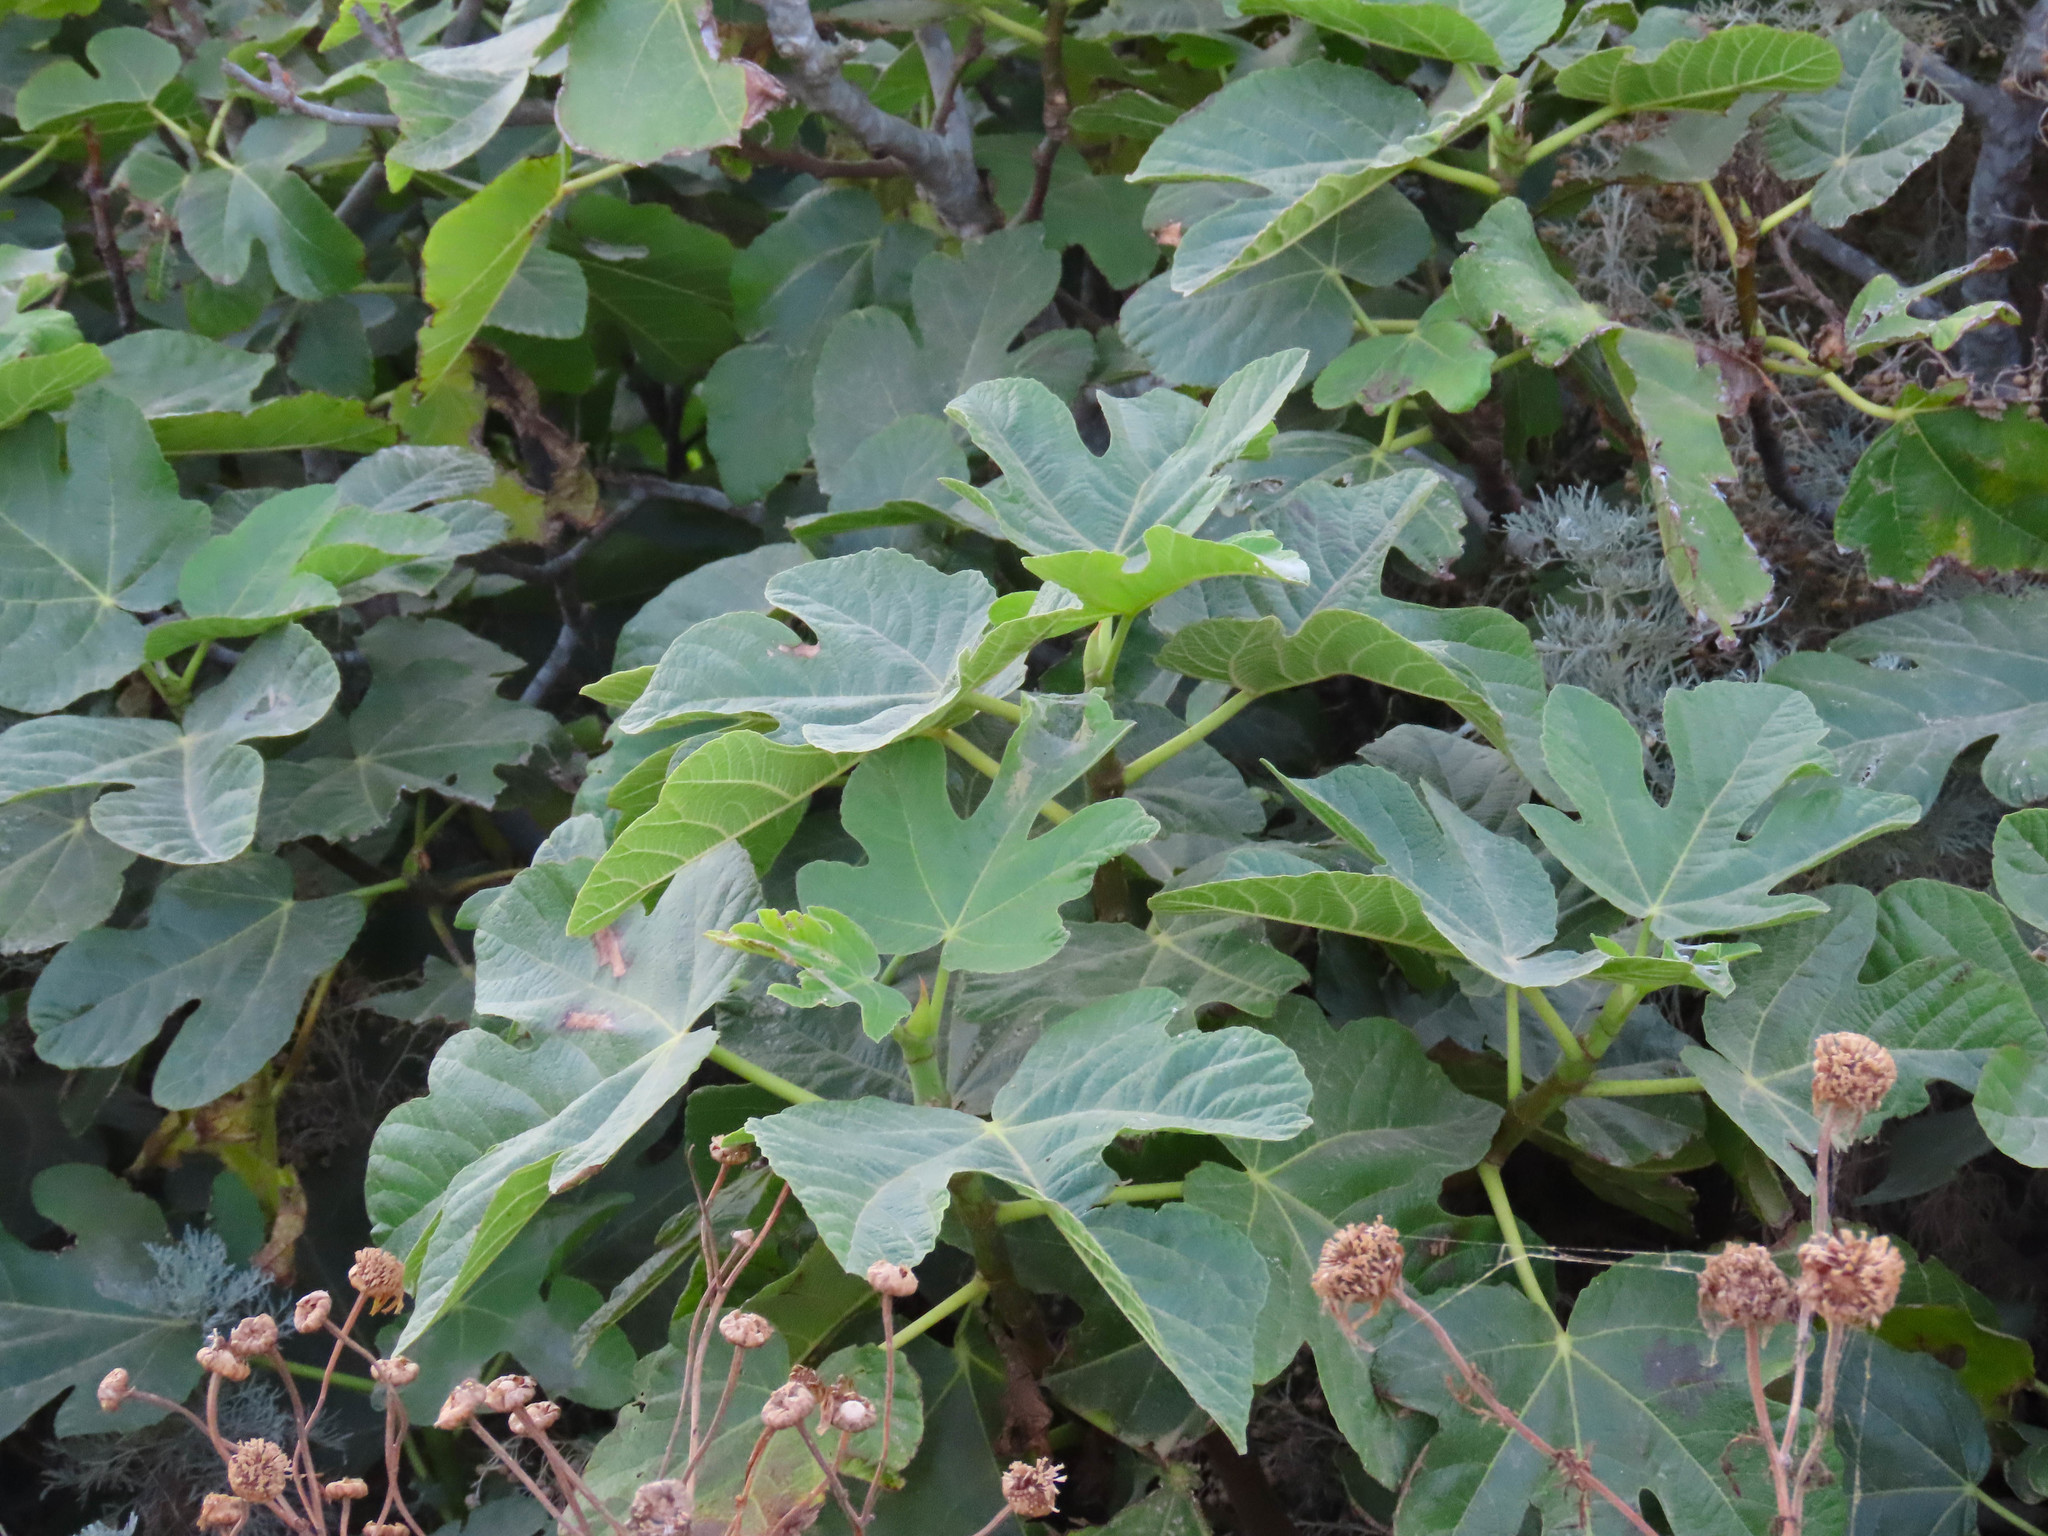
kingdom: Plantae
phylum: Tracheophyta
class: Magnoliopsida
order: Rosales
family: Moraceae
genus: Ficus
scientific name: Ficus carica
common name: Fig
